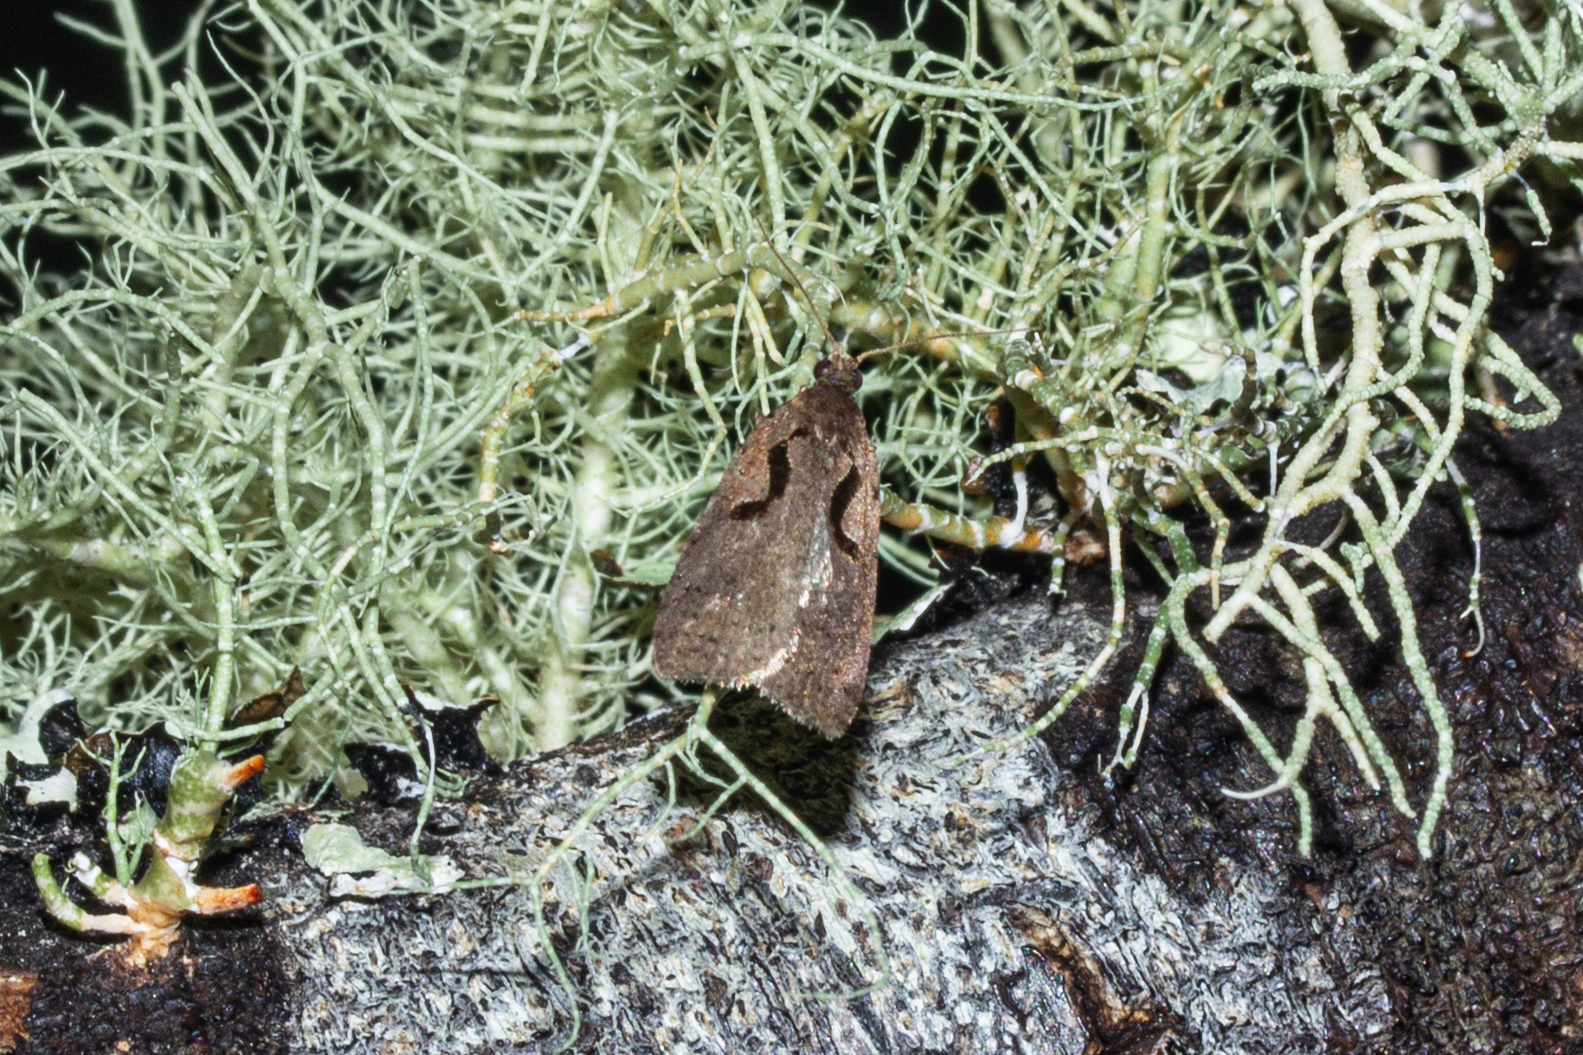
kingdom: Animalia
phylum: Arthropoda
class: Insecta
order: Lepidoptera
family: Tortricidae
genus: Cnephasia
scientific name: Cnephasia jactatana
